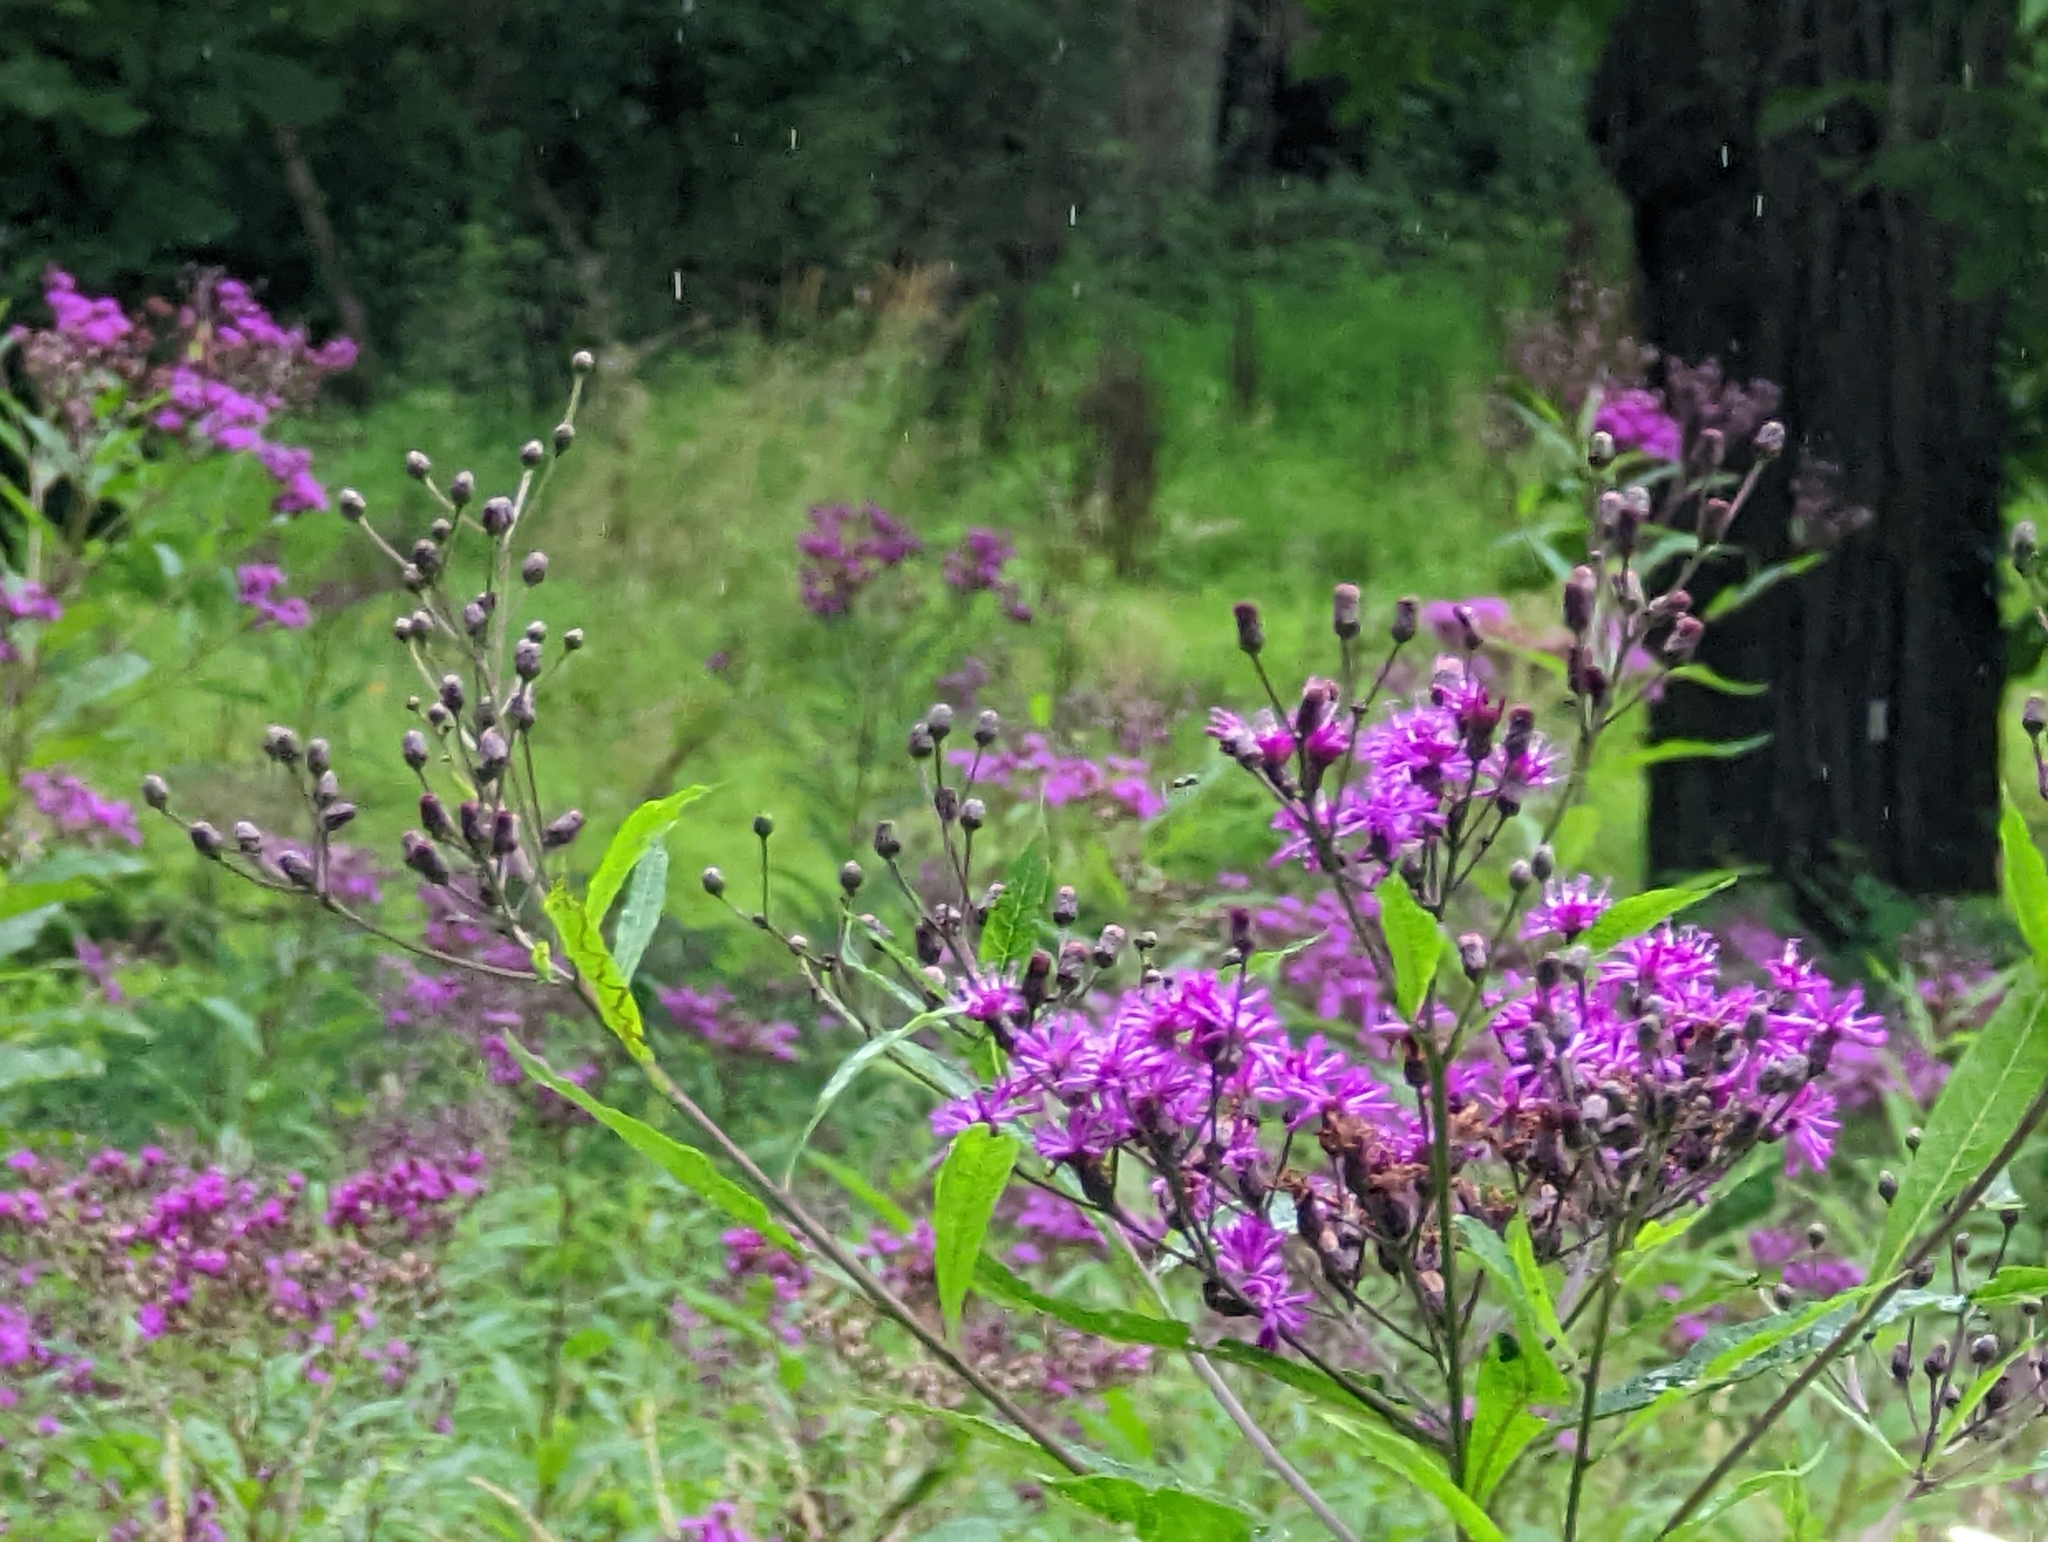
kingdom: Plantae
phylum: Tracheophyta
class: Magnoliopsida
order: Asterales
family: Asteraceae
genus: Vernonia
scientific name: Vernonia gigantea
